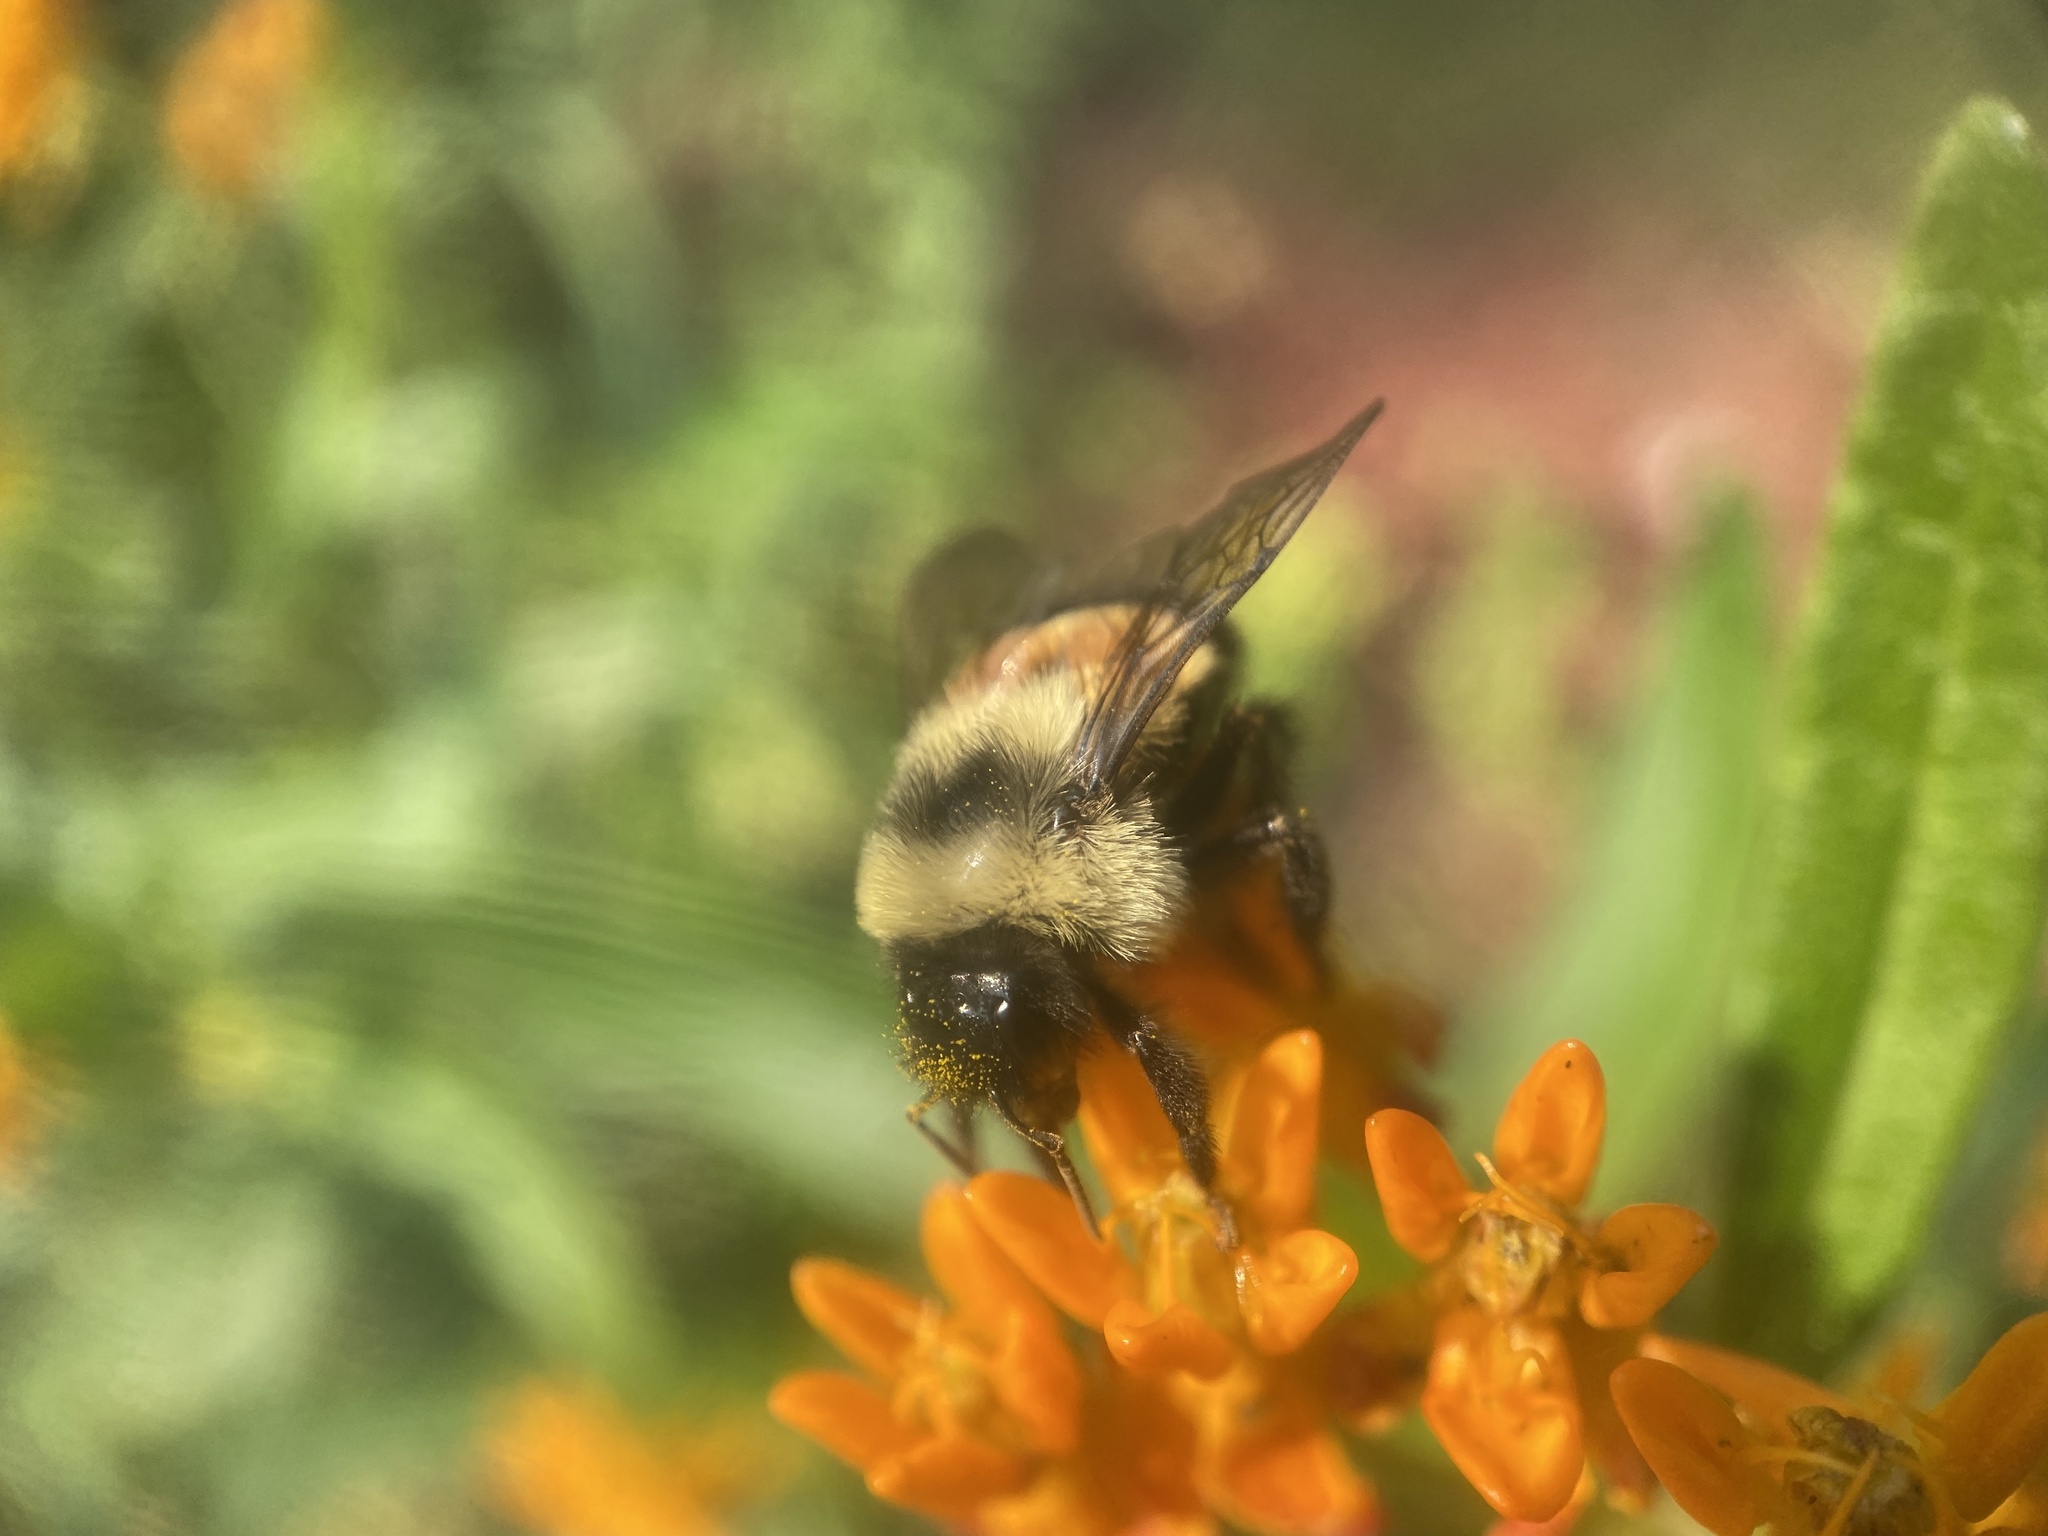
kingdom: Animalia
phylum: Arthropoda
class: Insecta
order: Hymenoptera
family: Apidae
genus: Bombus
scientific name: Bombus affinis
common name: Rusty patched bumble bee
